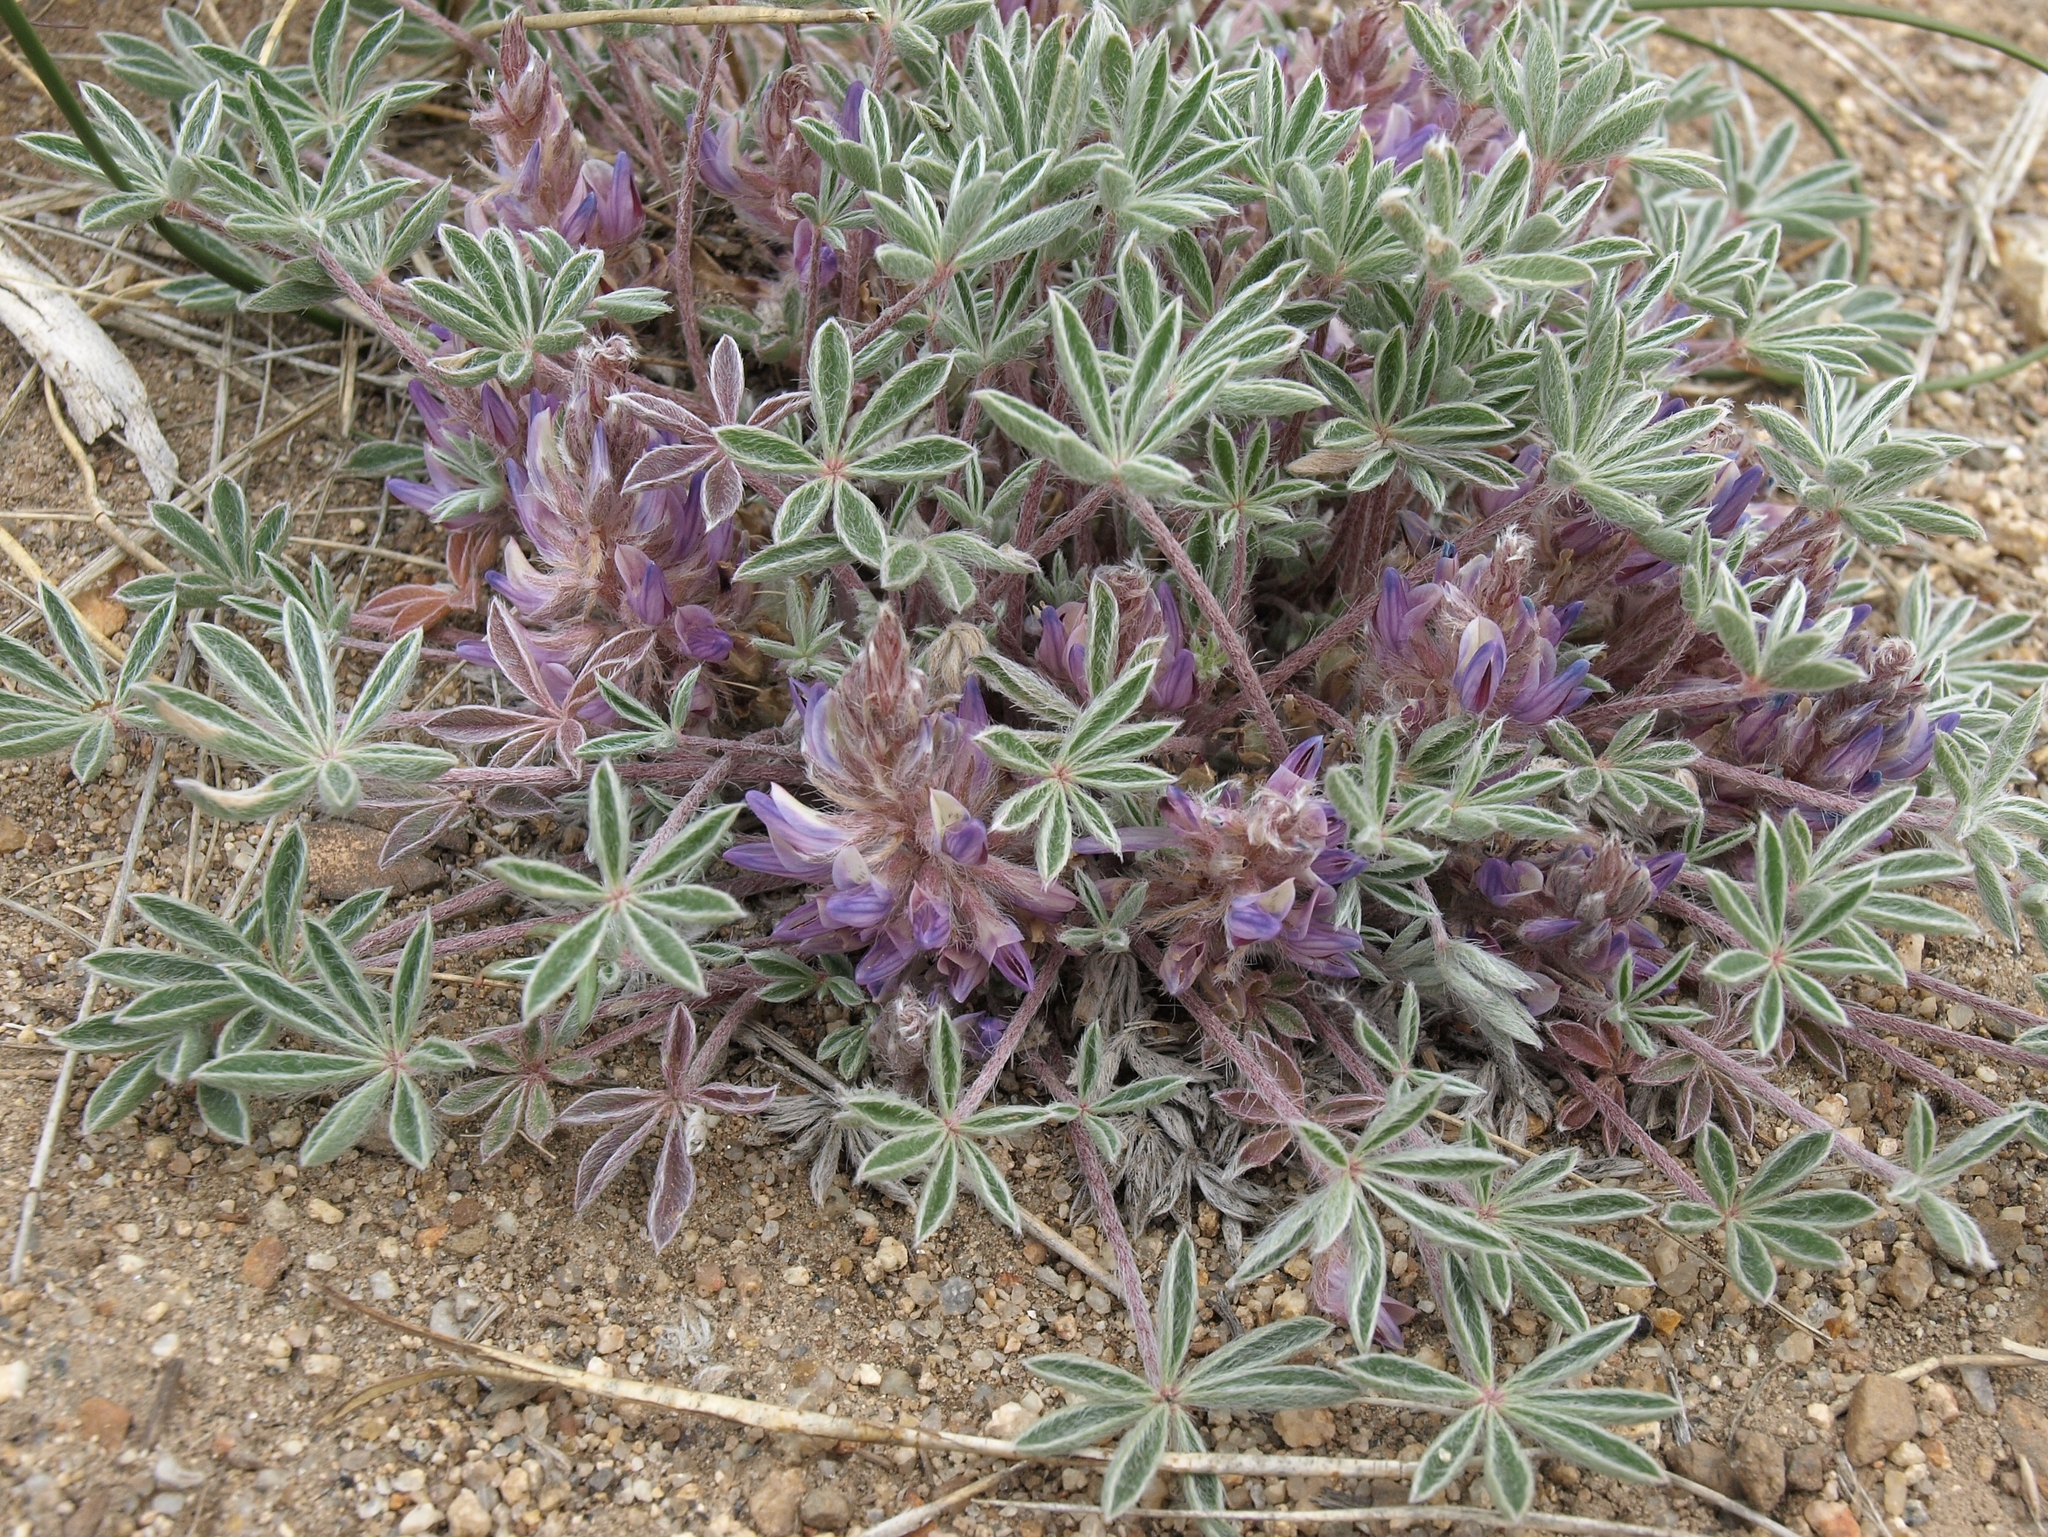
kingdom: Plantae
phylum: Tracheophyta
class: Magnoliopsida
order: Fabales
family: Fabaceae
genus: Lupinus
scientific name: Lupinus caespitosus
